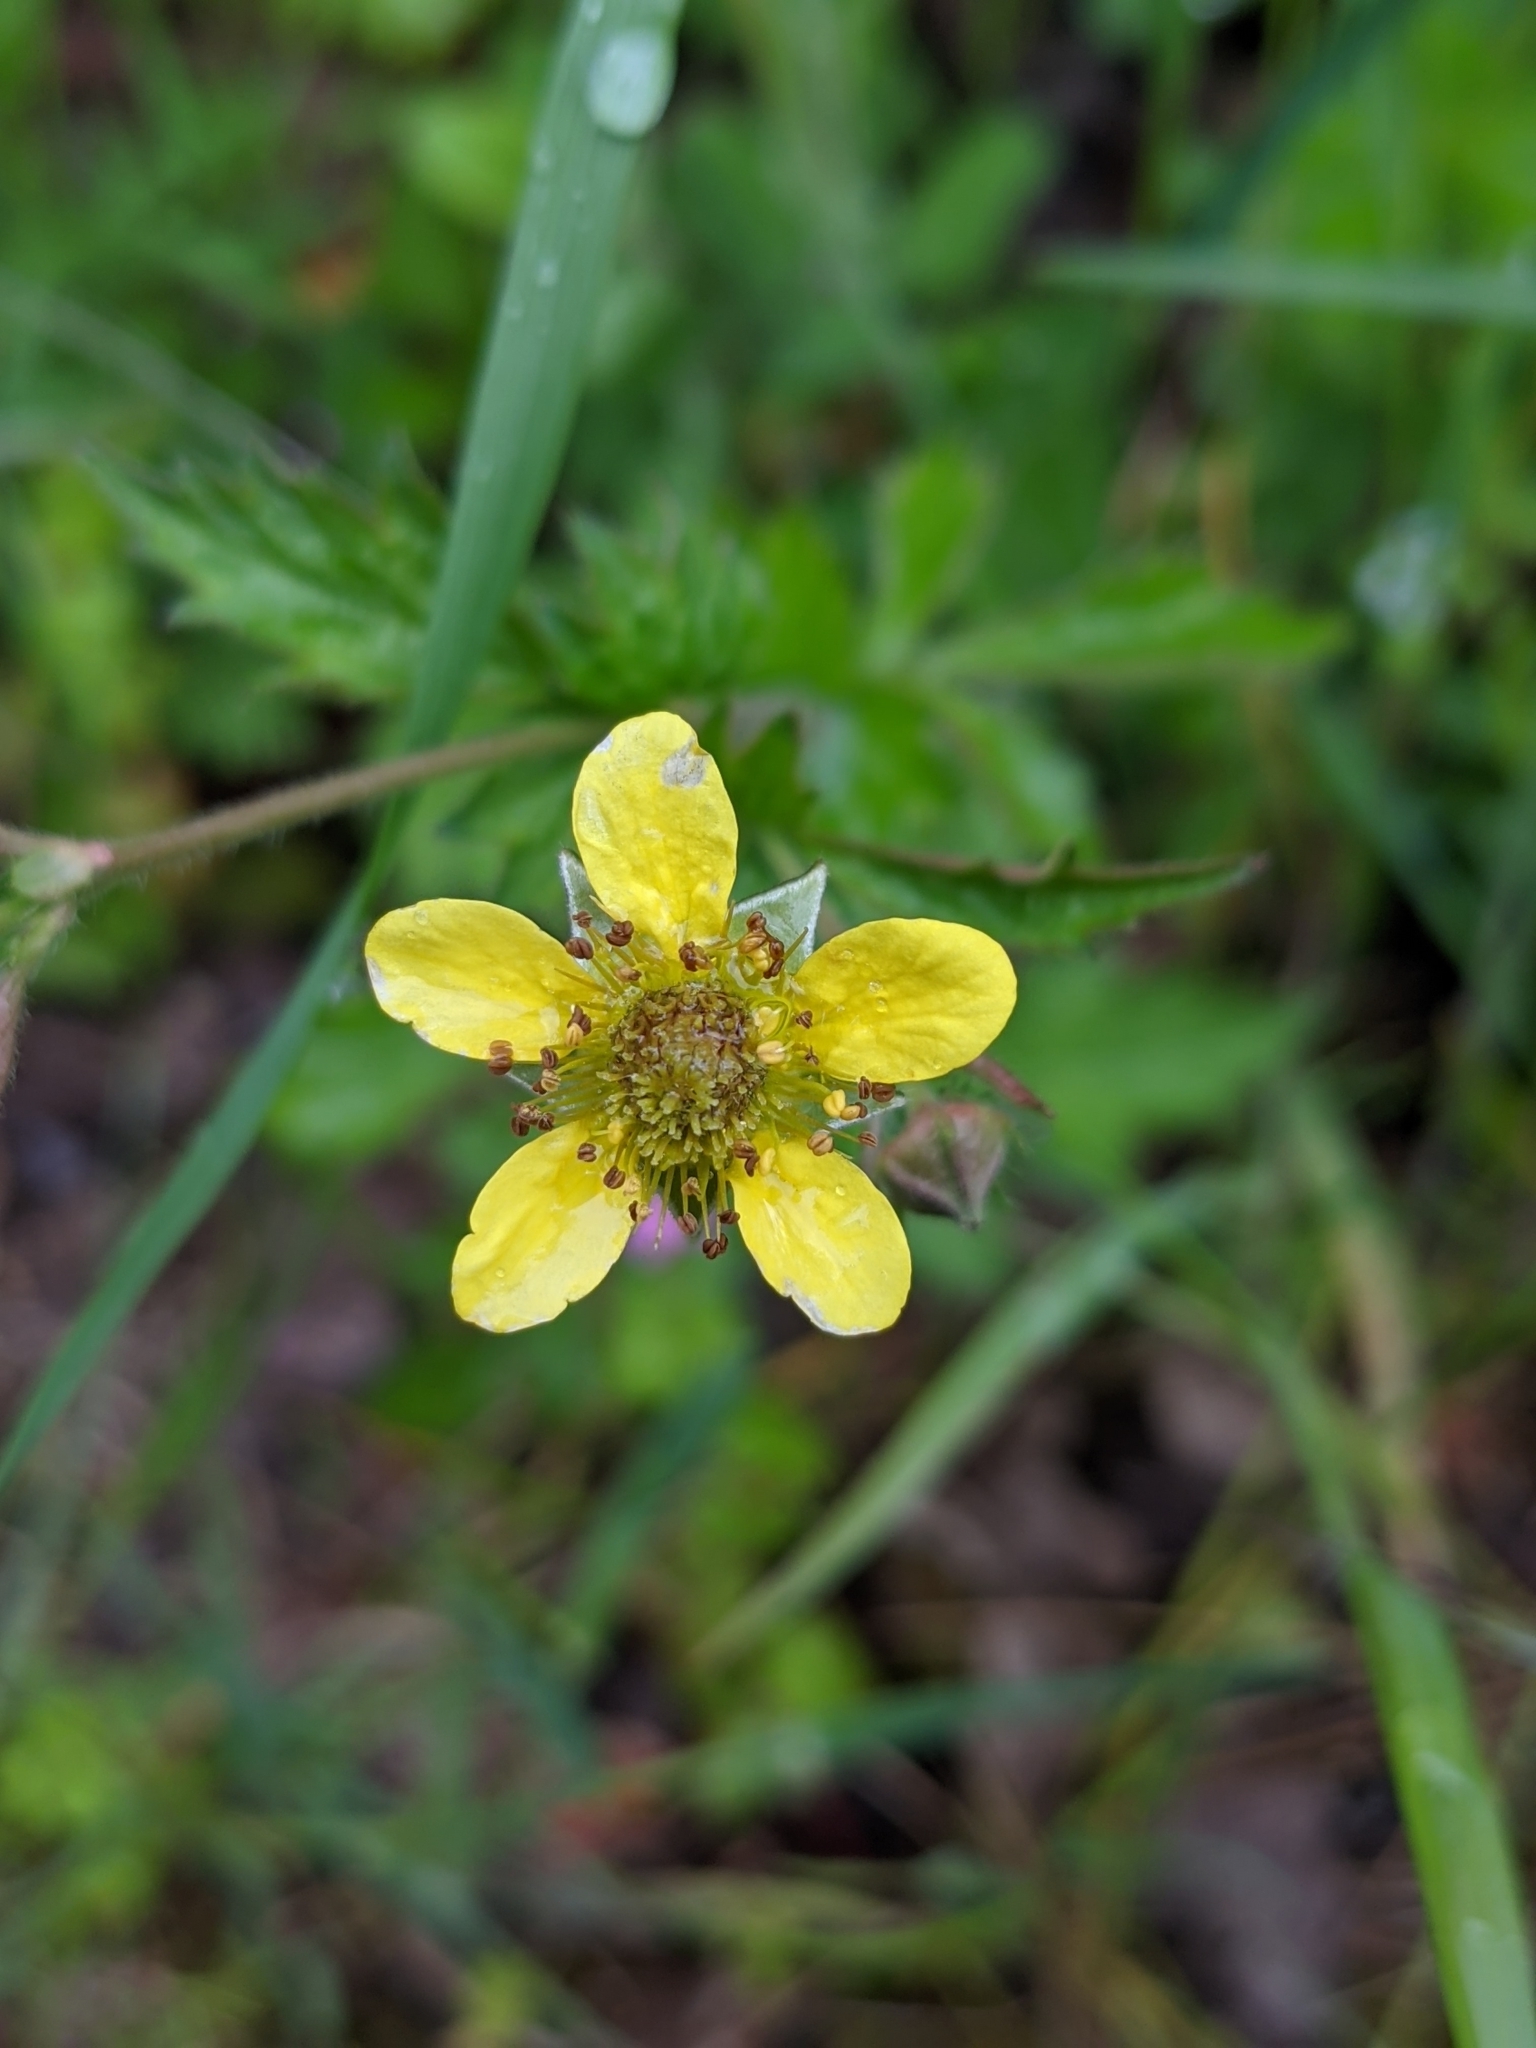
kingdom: Plantae
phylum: Tracheophyta
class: Magnoliopsida
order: Rosales
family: Rosaceae
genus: Geum
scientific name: Geum urbanum
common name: Wood avens
